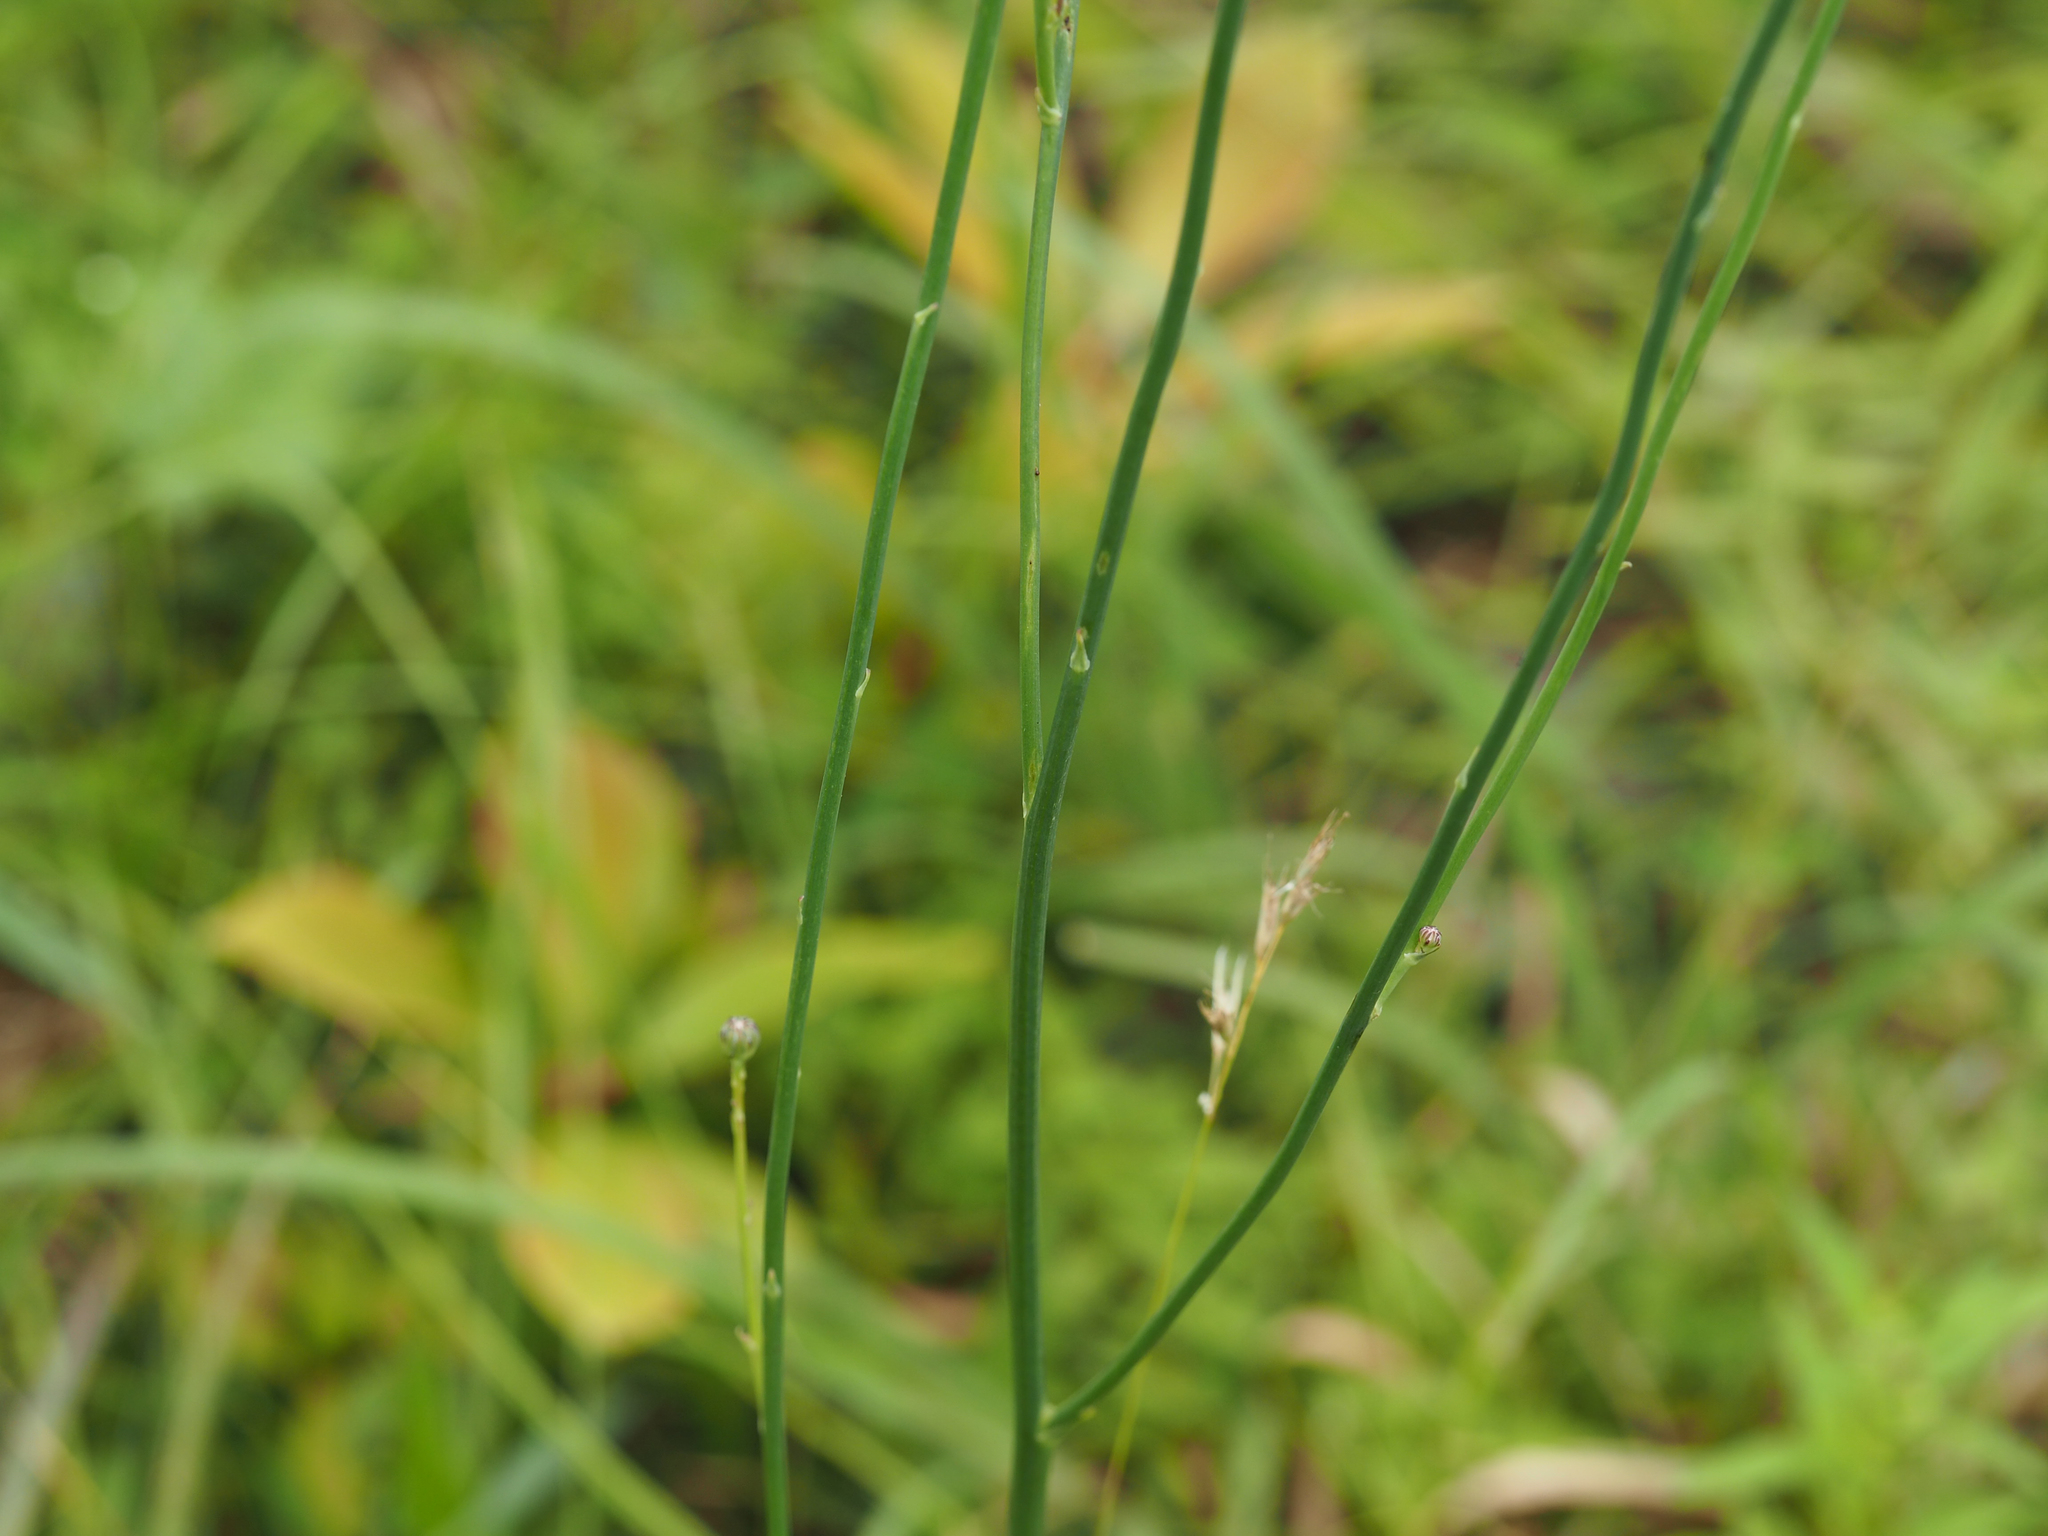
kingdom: Plantae
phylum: Tracheophyta
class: Magnoliopsida
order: Asterales
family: Asteraceae
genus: Hypochaeris
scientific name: Hypochaeris radicata
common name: Flatweed
